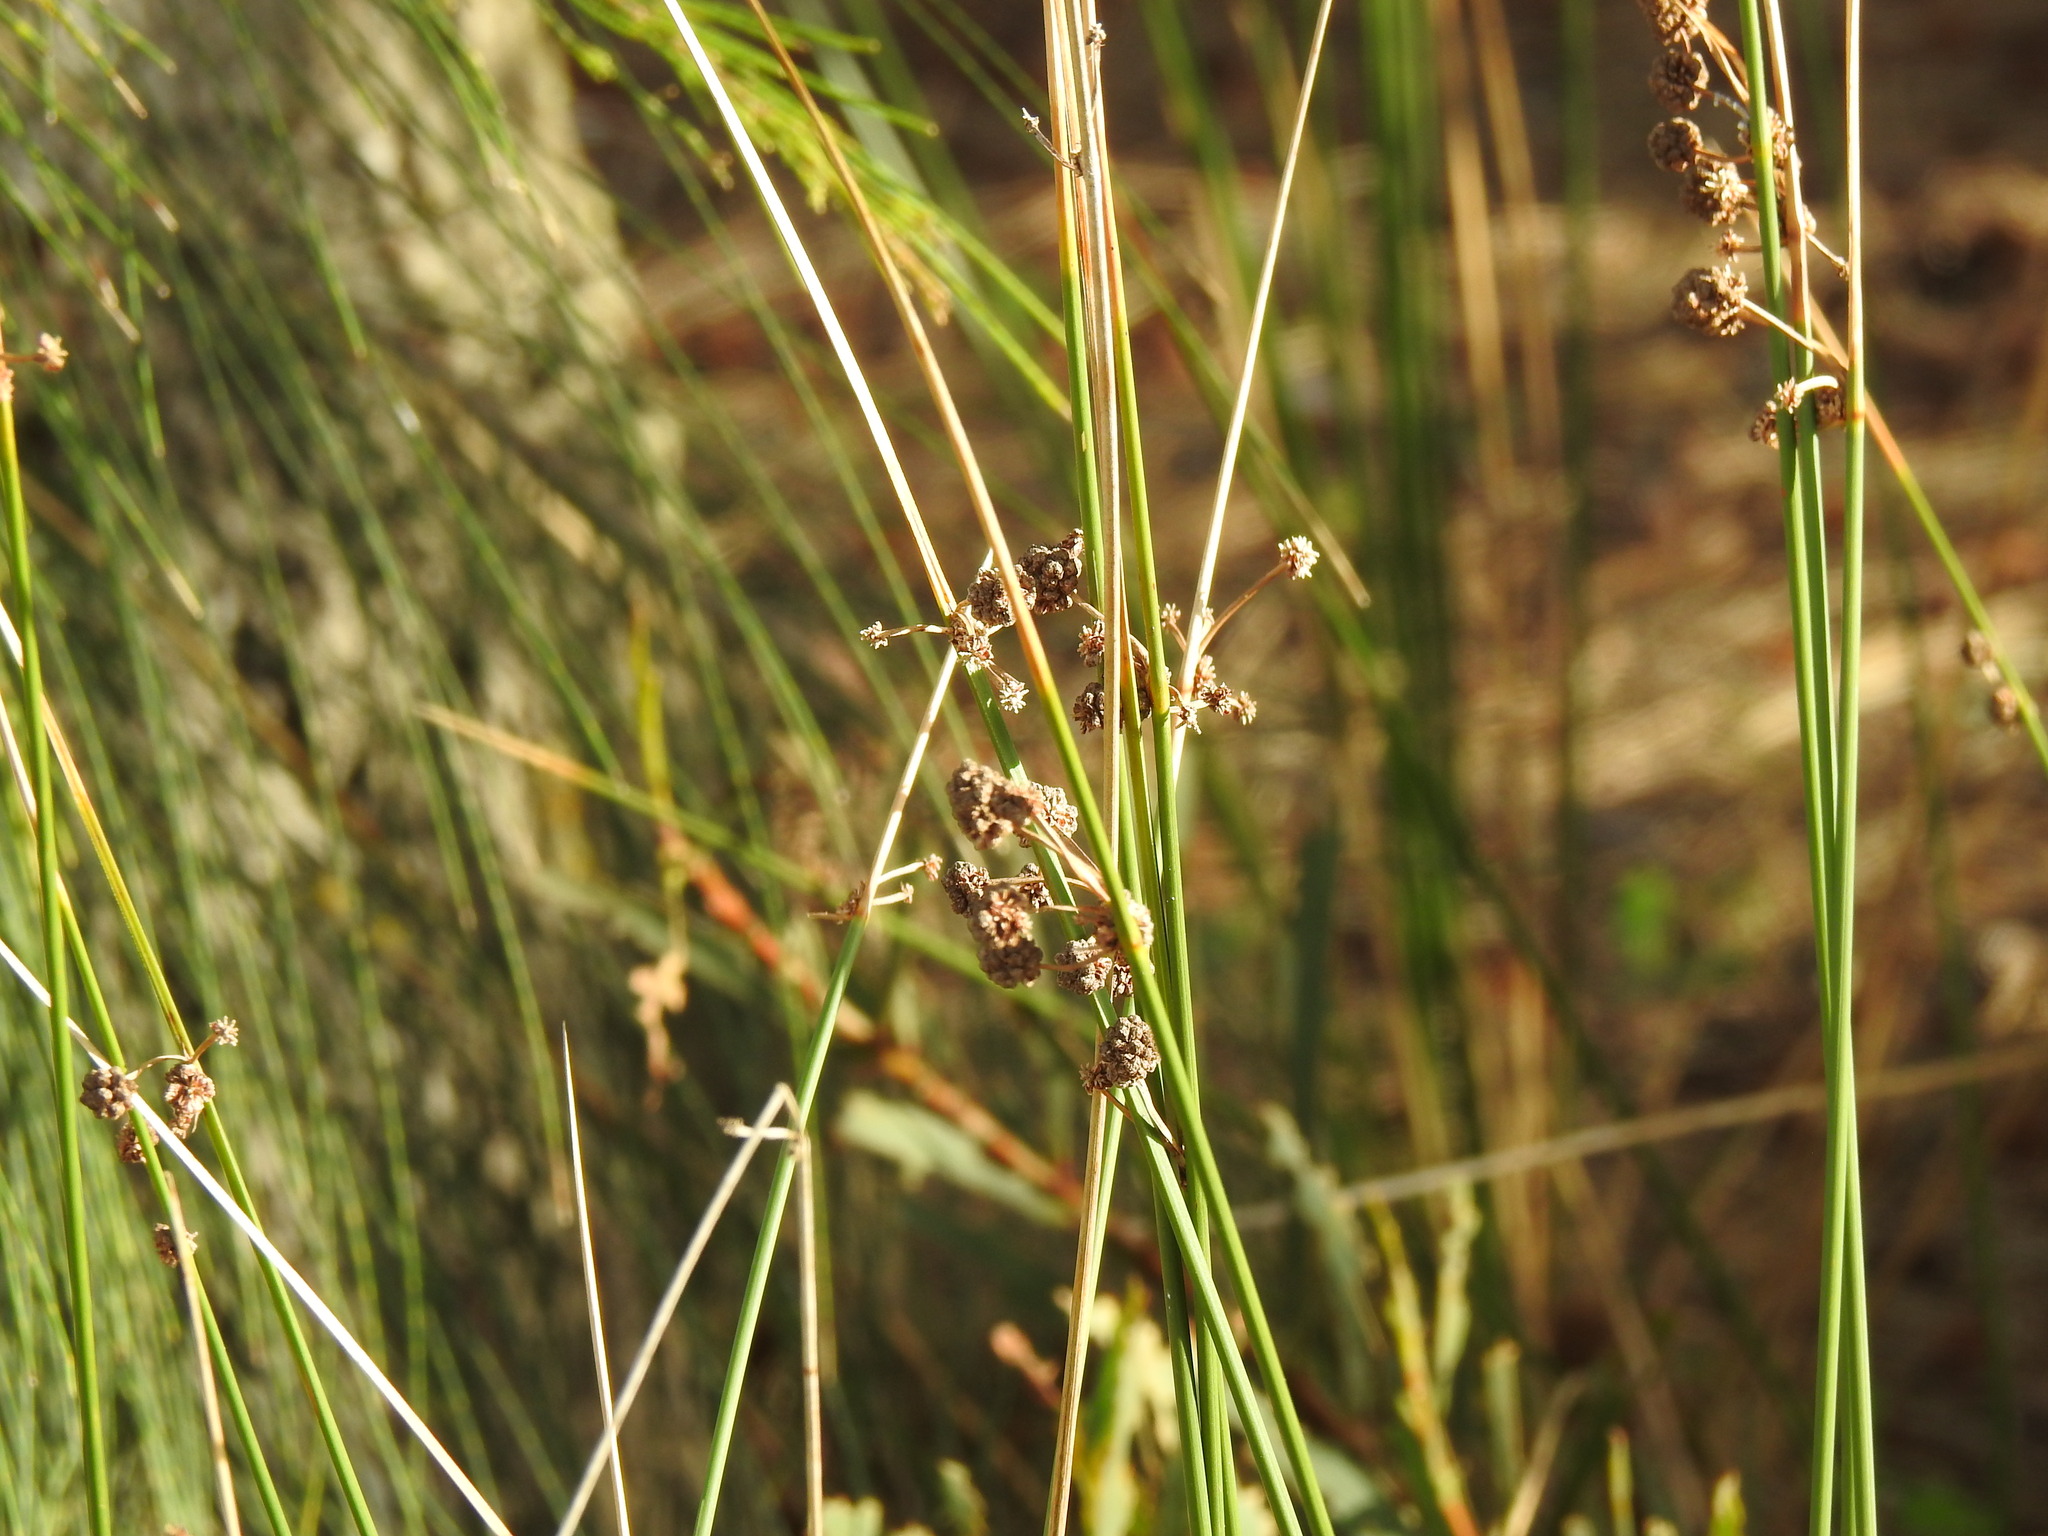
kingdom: Plantae
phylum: Tracheophyta
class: Liliopsida
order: Poales
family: Cyperaceae
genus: Scirpoides
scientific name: Scirpoides holoschoenus
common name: Round-headed club-rush
